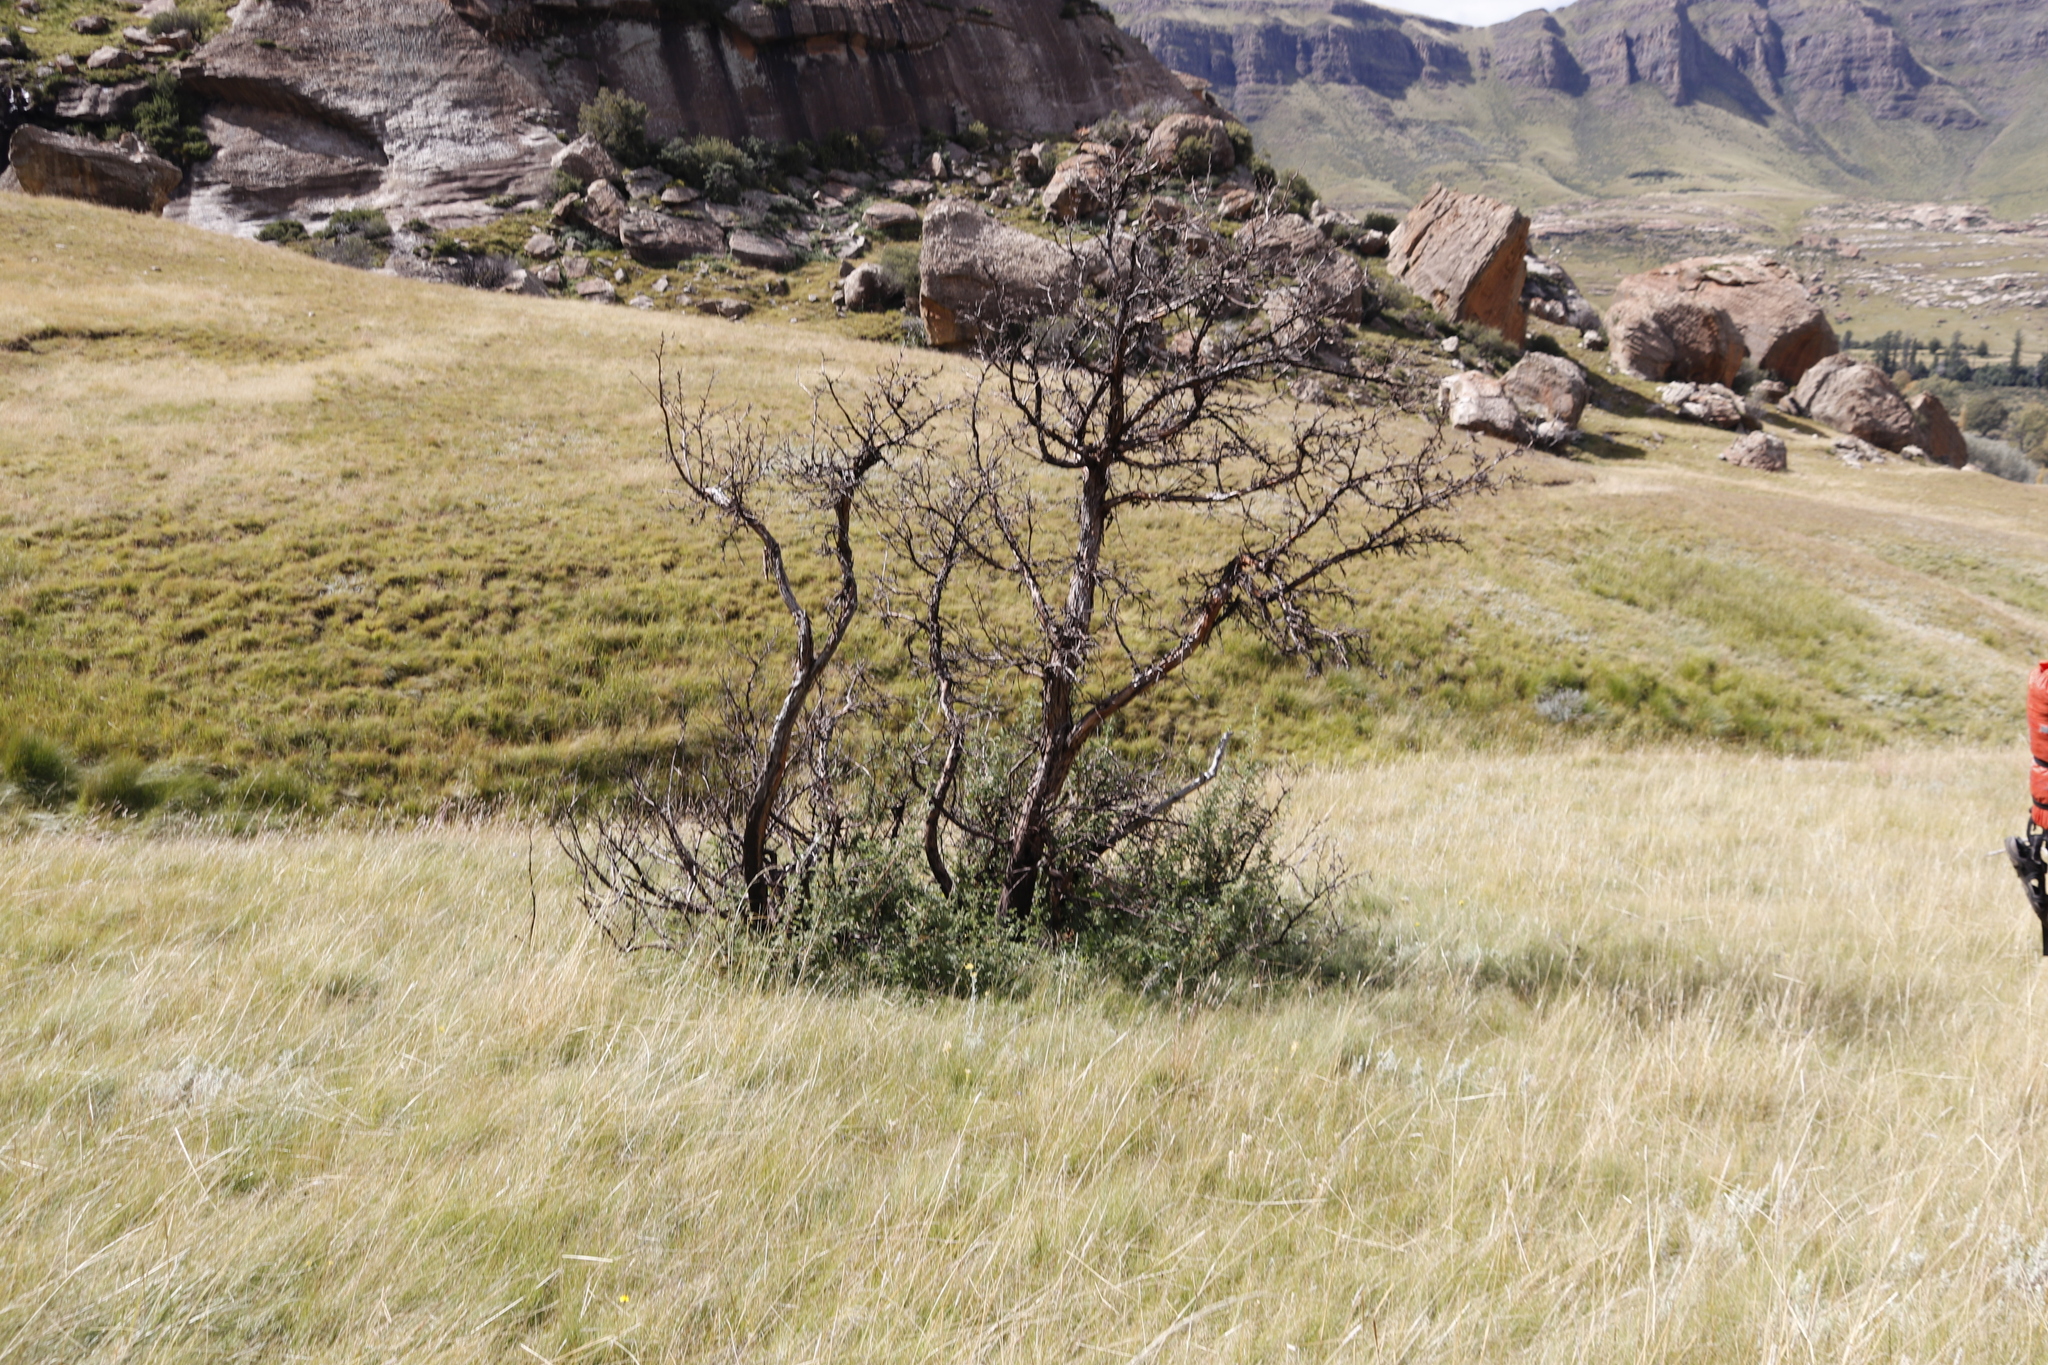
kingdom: Plantae
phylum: Tracheophyta
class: Magnoliopsida
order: Rosales
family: Rosaceae
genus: Leucosidea
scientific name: Leucosidea sericea
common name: Oldwood
